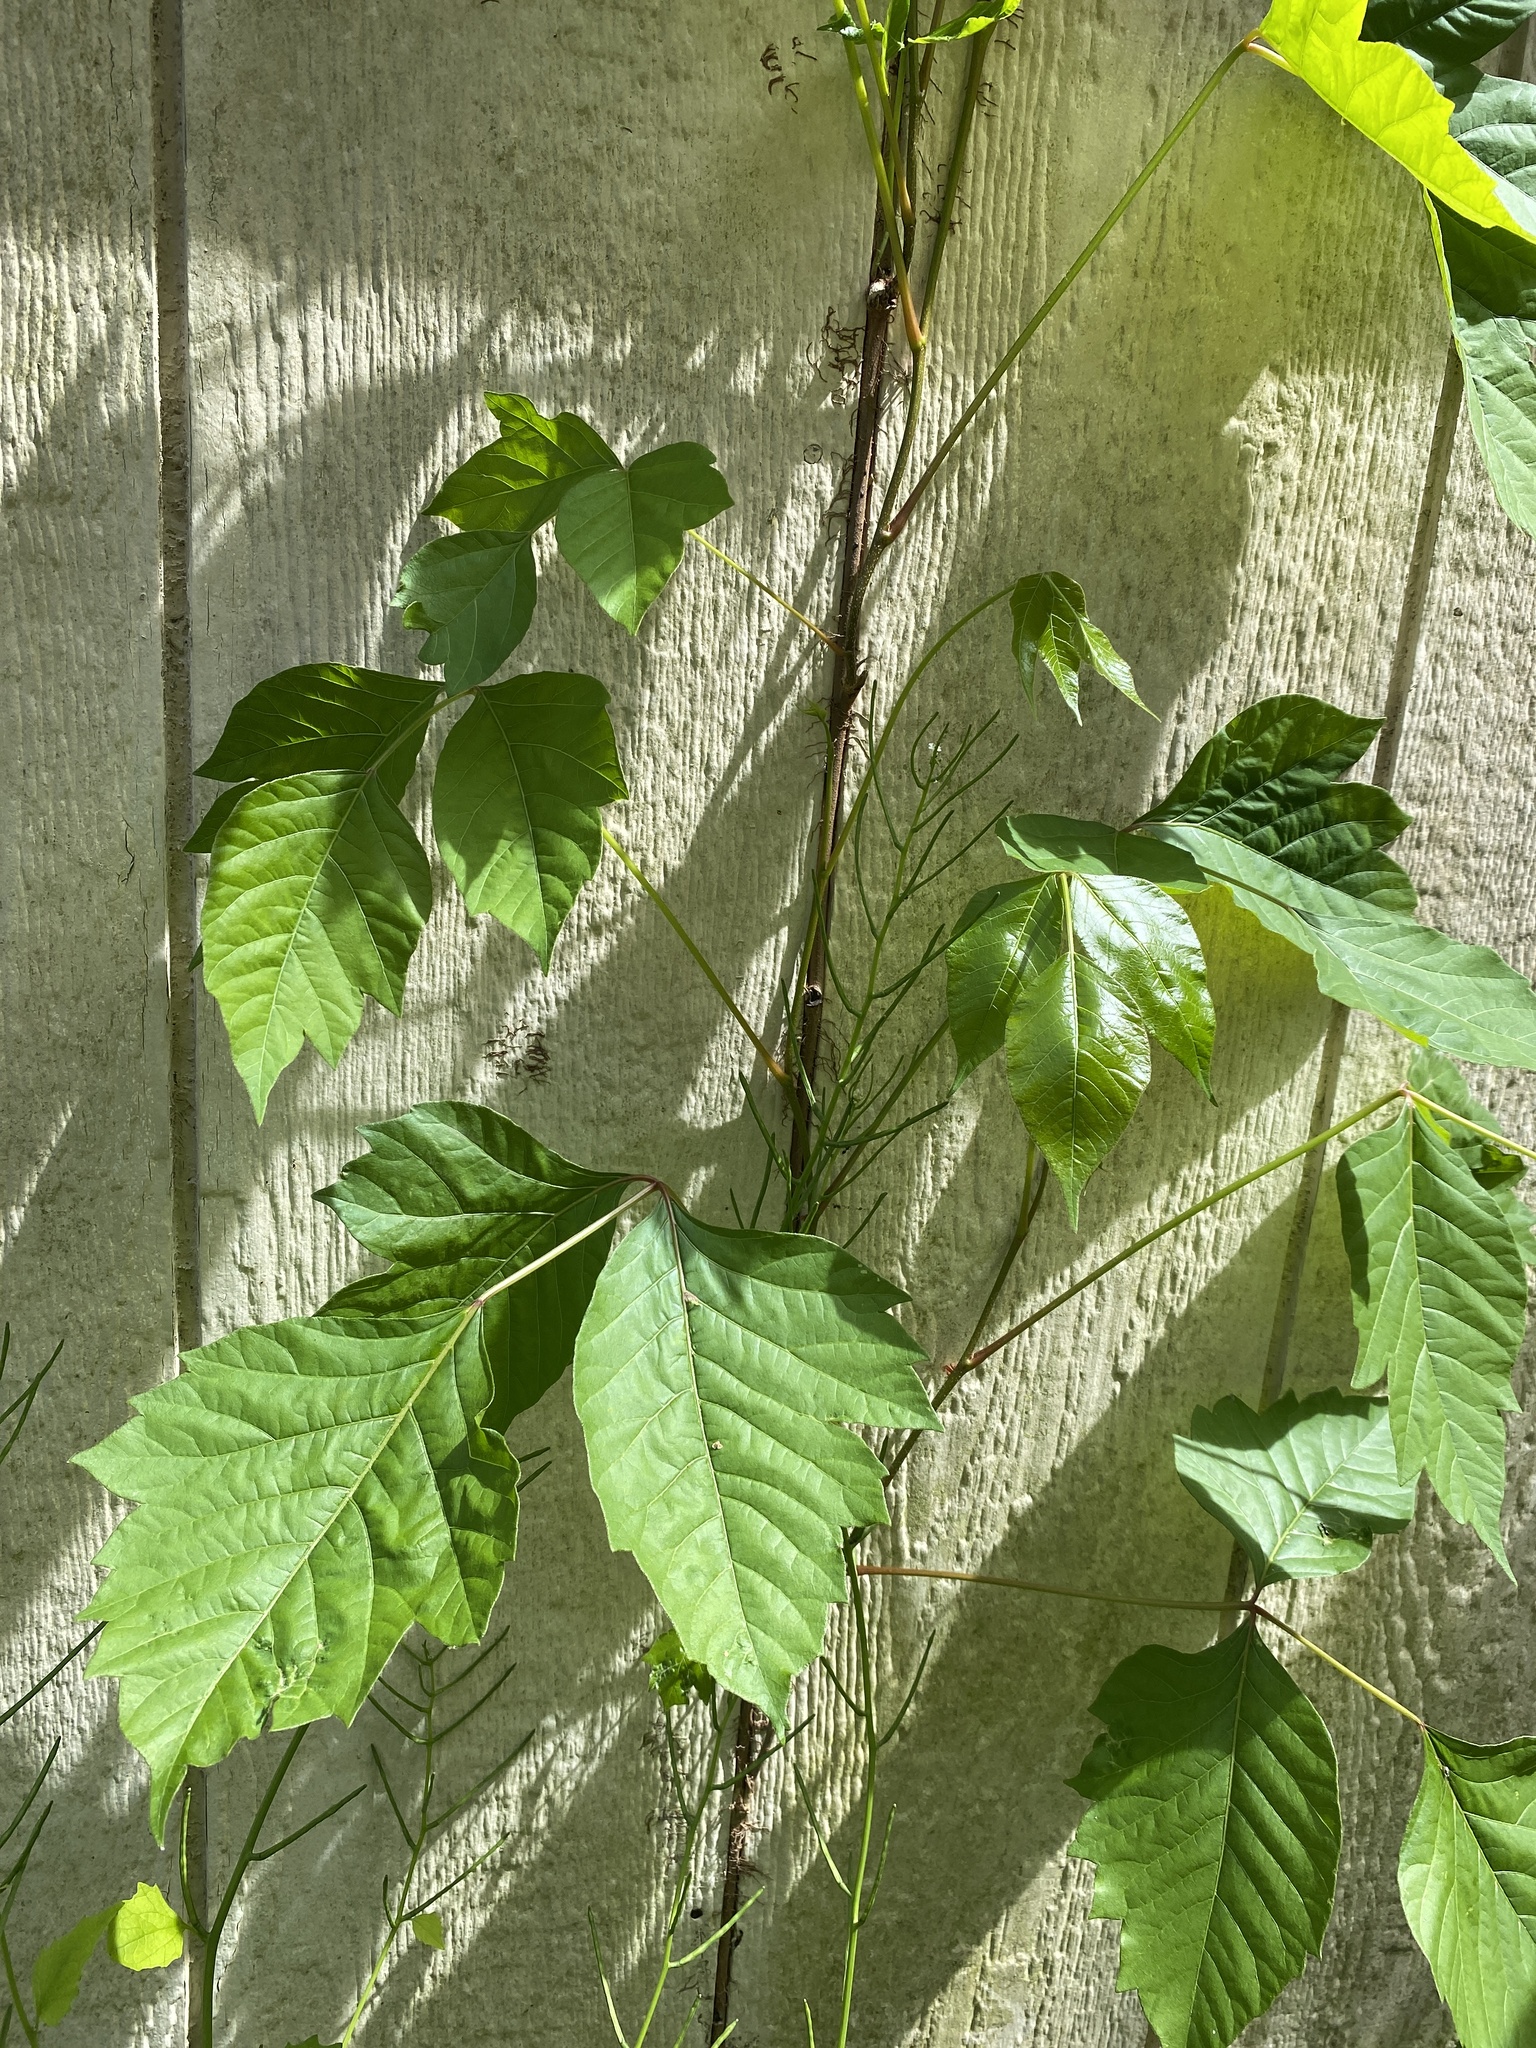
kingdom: Plantae
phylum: Tracheophyta
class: Magnoliopsida
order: Sapindales
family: Anacardiaceae
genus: Toxicodendron
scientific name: Toxicodendron radicans
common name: Poison ivy
